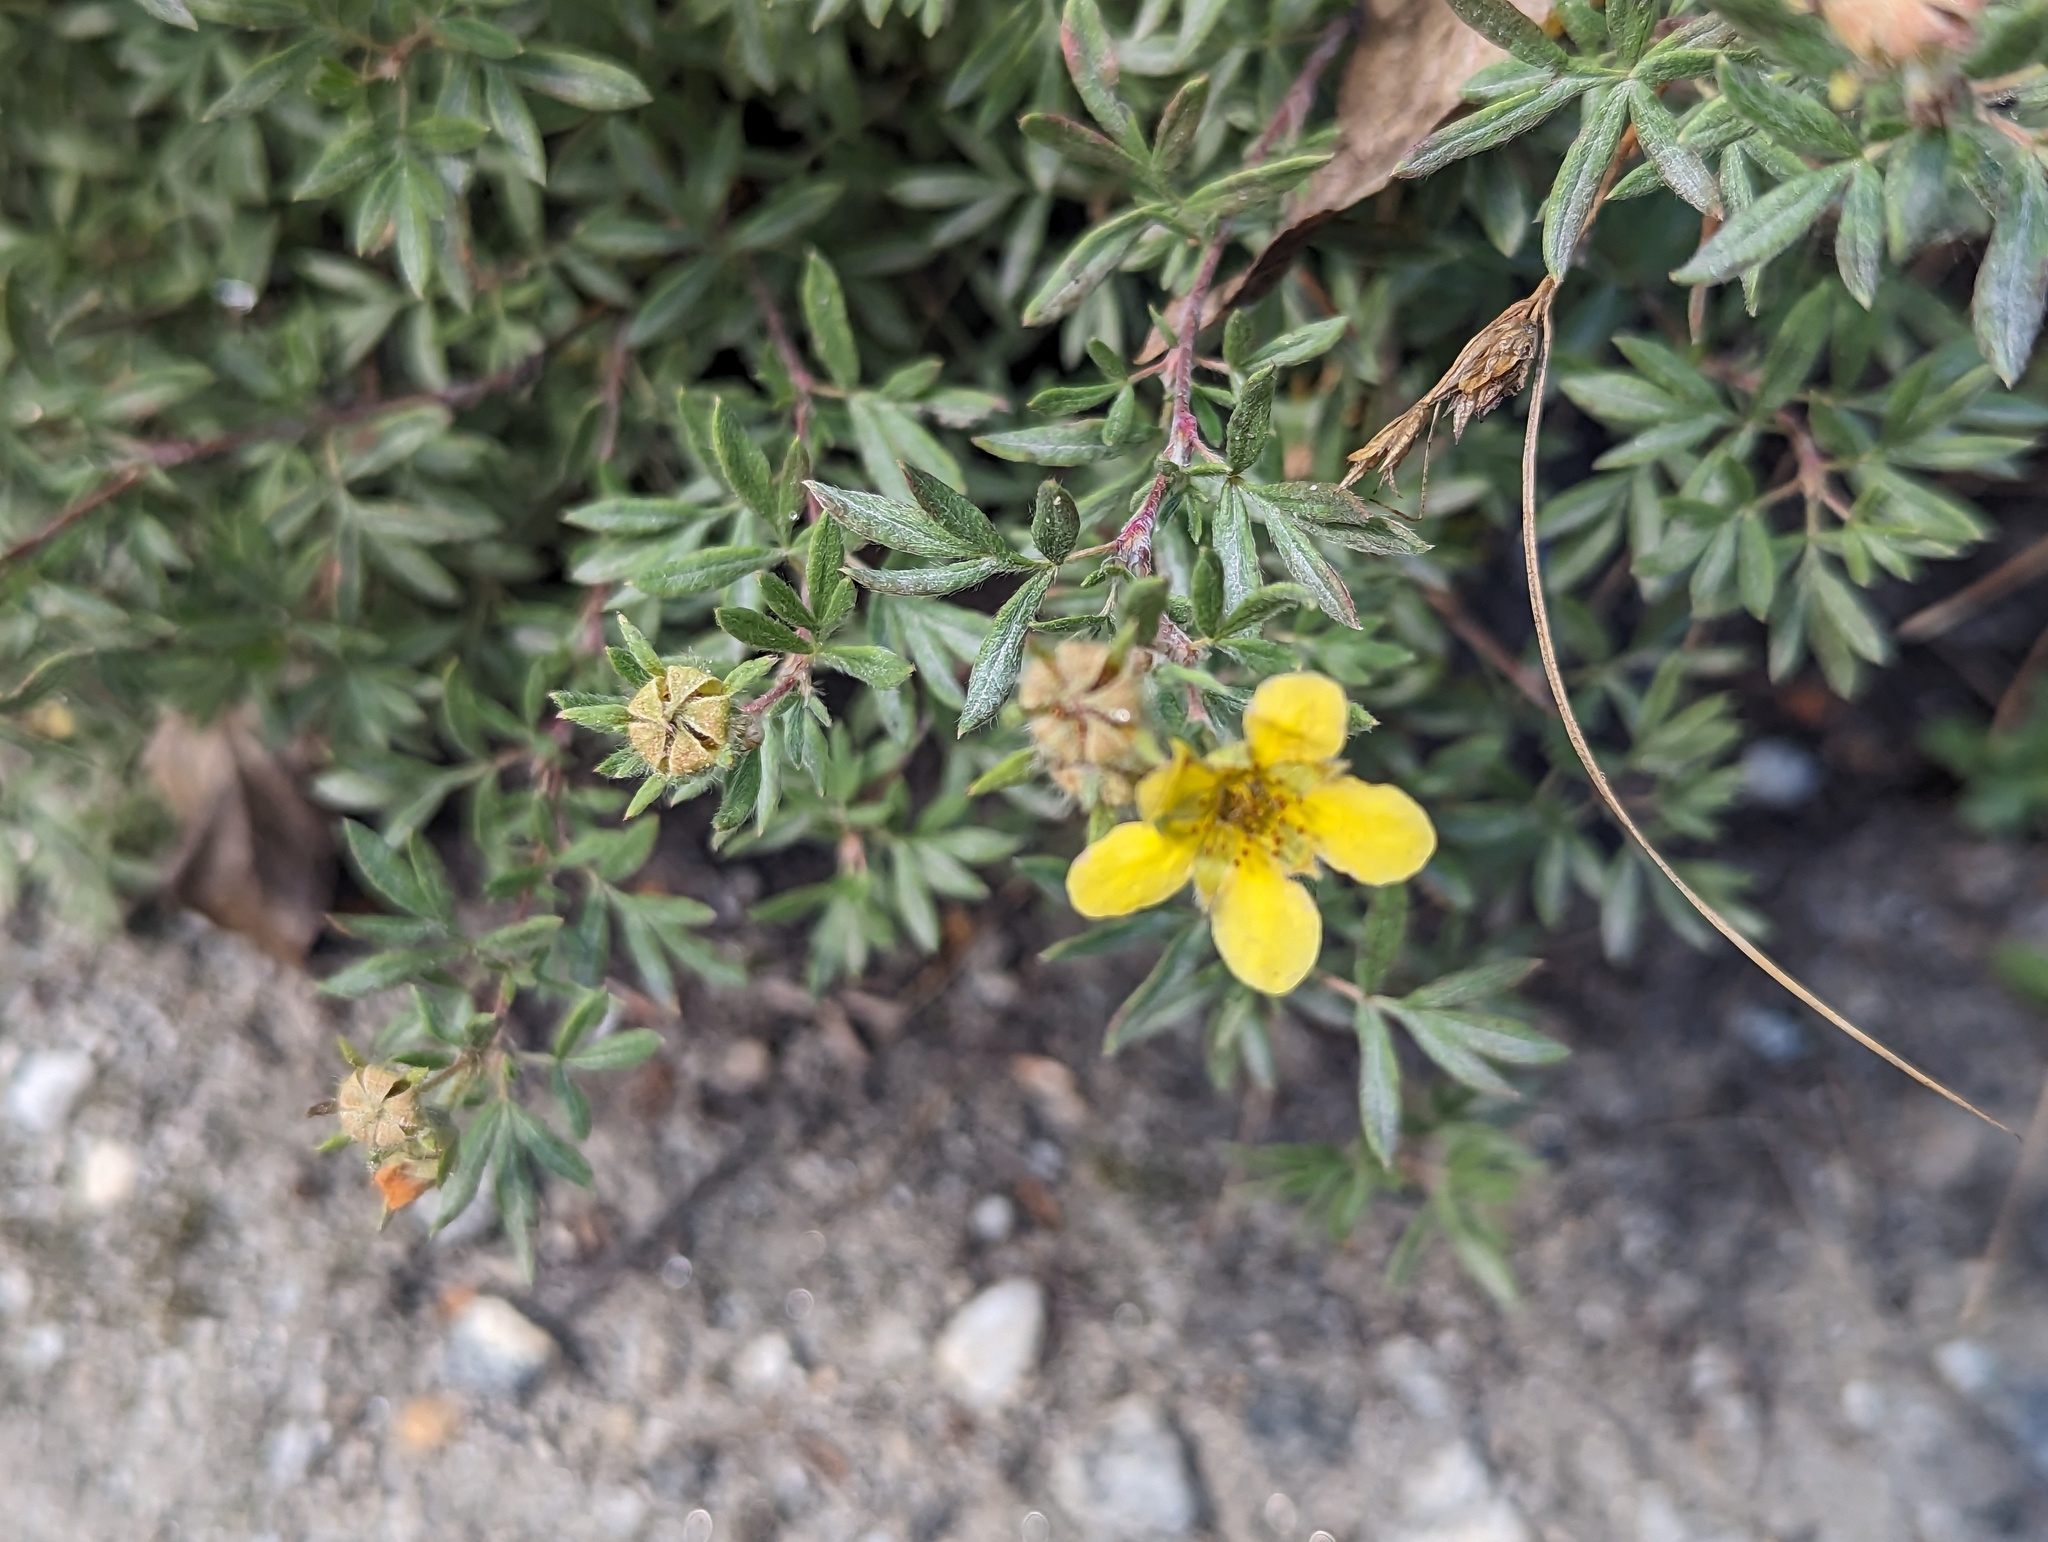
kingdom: Plantae
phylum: Tracheophyta
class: Magnoliopsida
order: Rosales
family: Rosaceae
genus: Dasiphora
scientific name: Dasiphora fruticosa
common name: Shrubby cinquefoil
